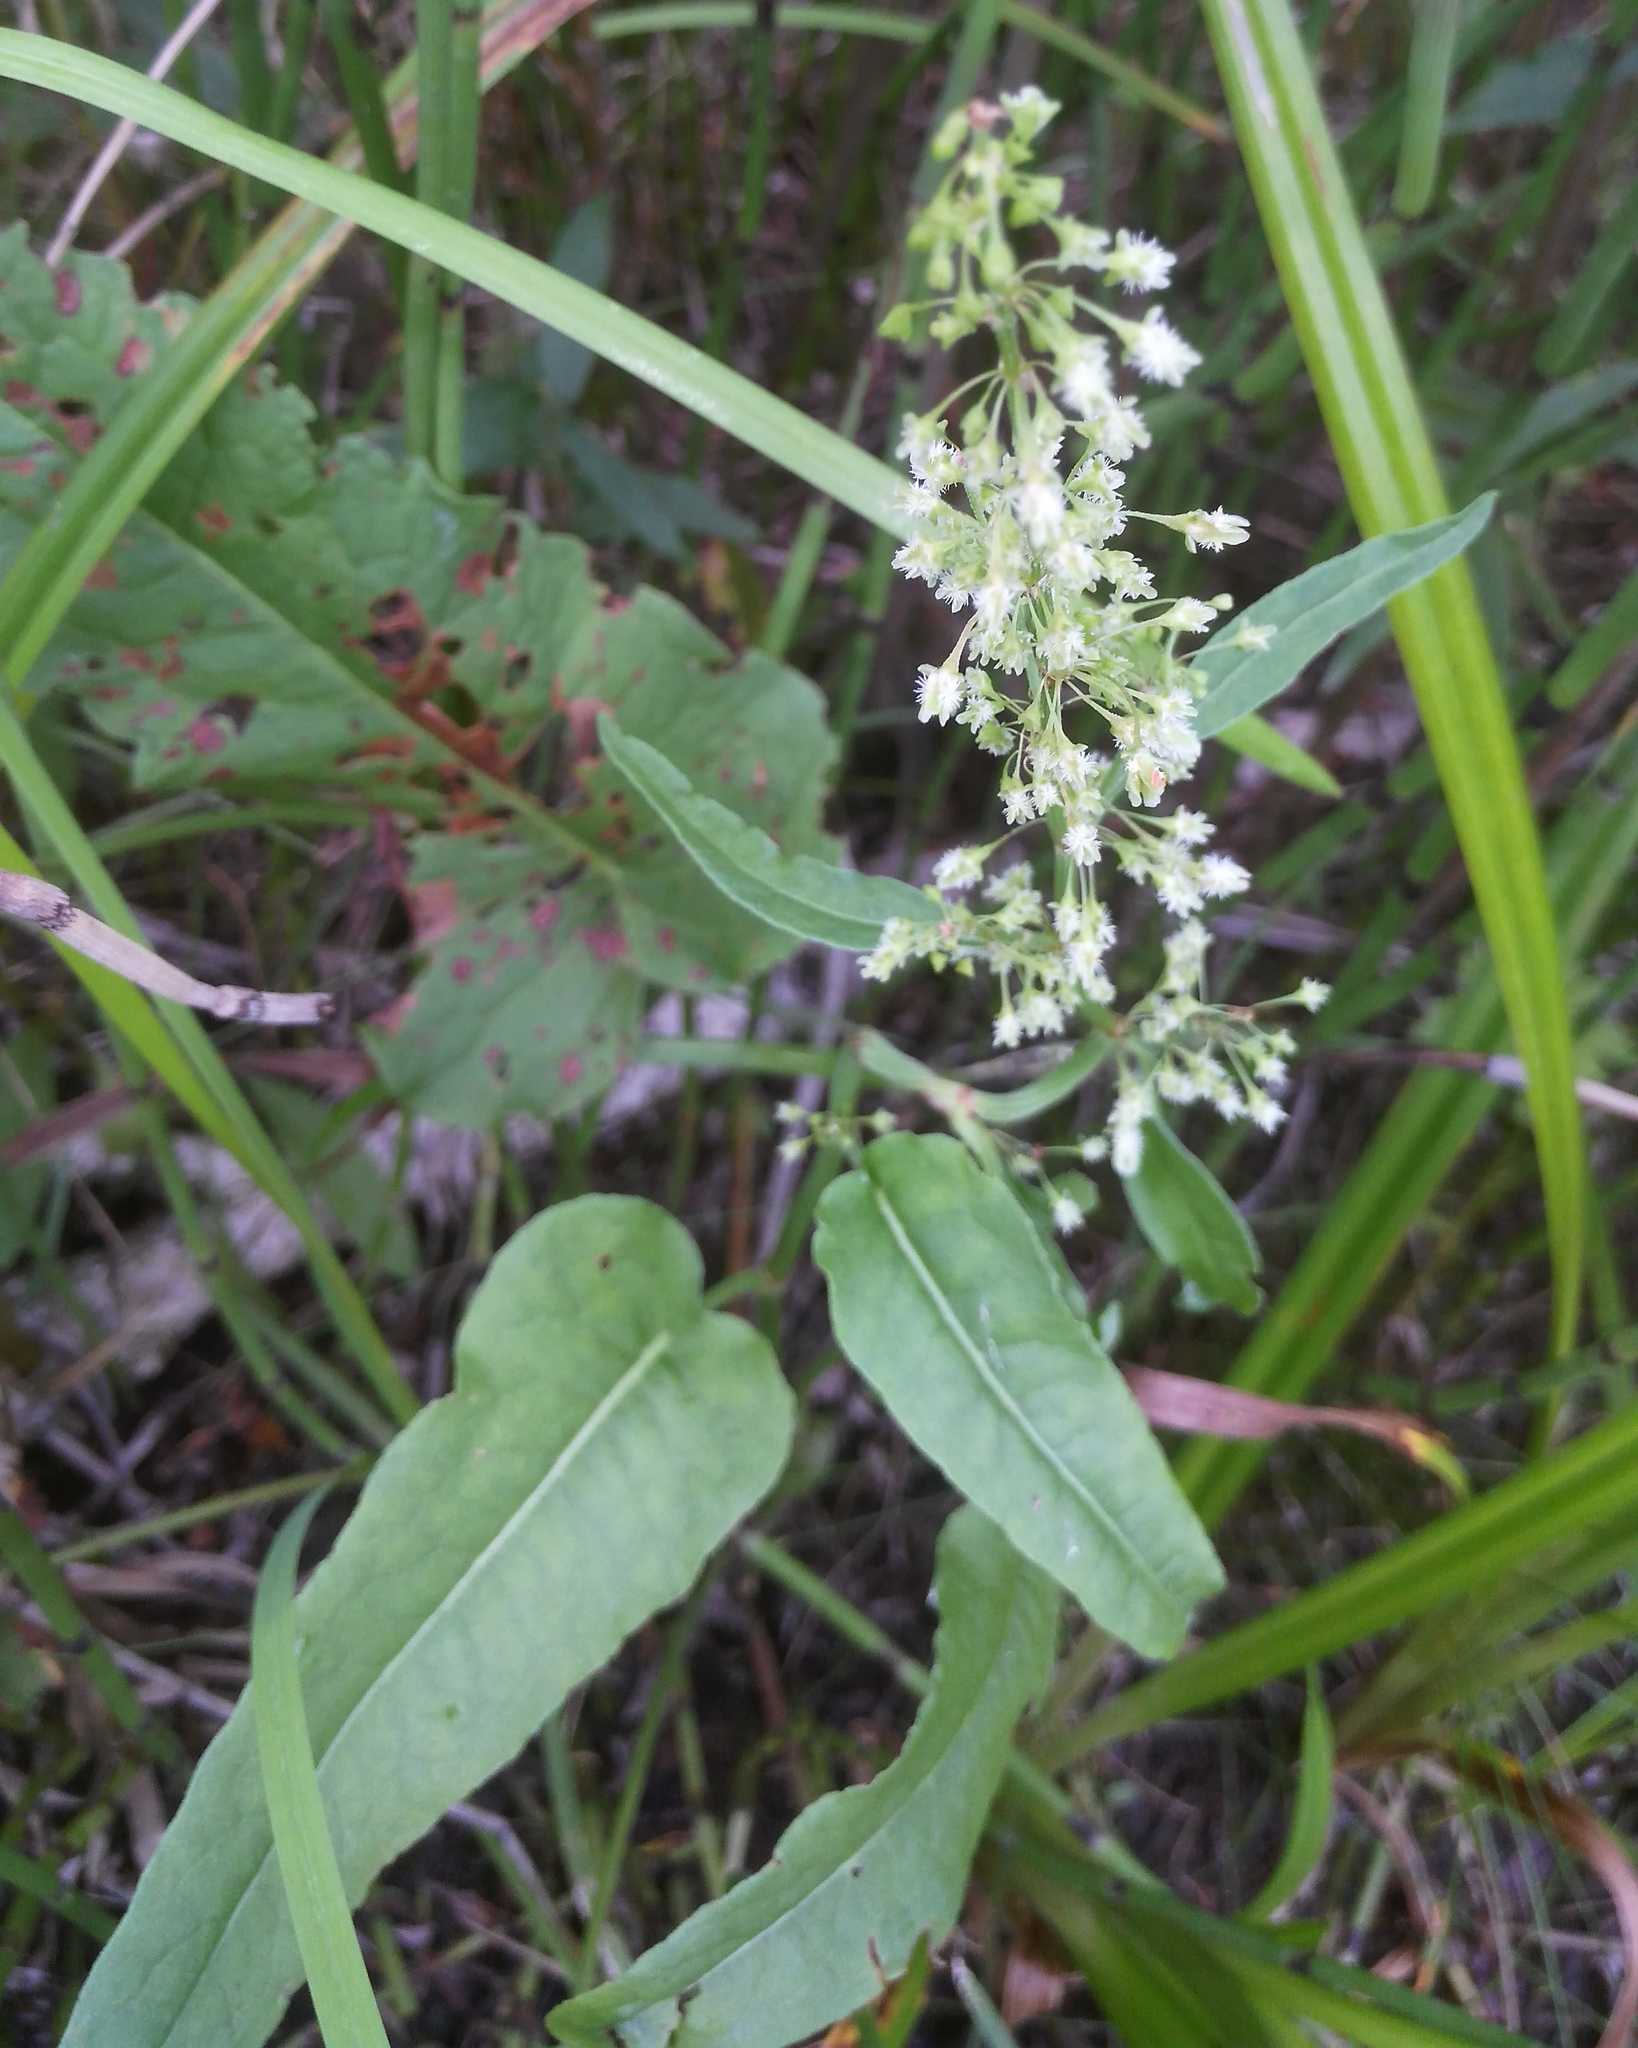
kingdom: Plantae
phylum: Tracheophyta
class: Magnoliopsida
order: Caryophyllales
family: Polygonaceae
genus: Rumex
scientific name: Rumex aquaticus
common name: Scottish dock
